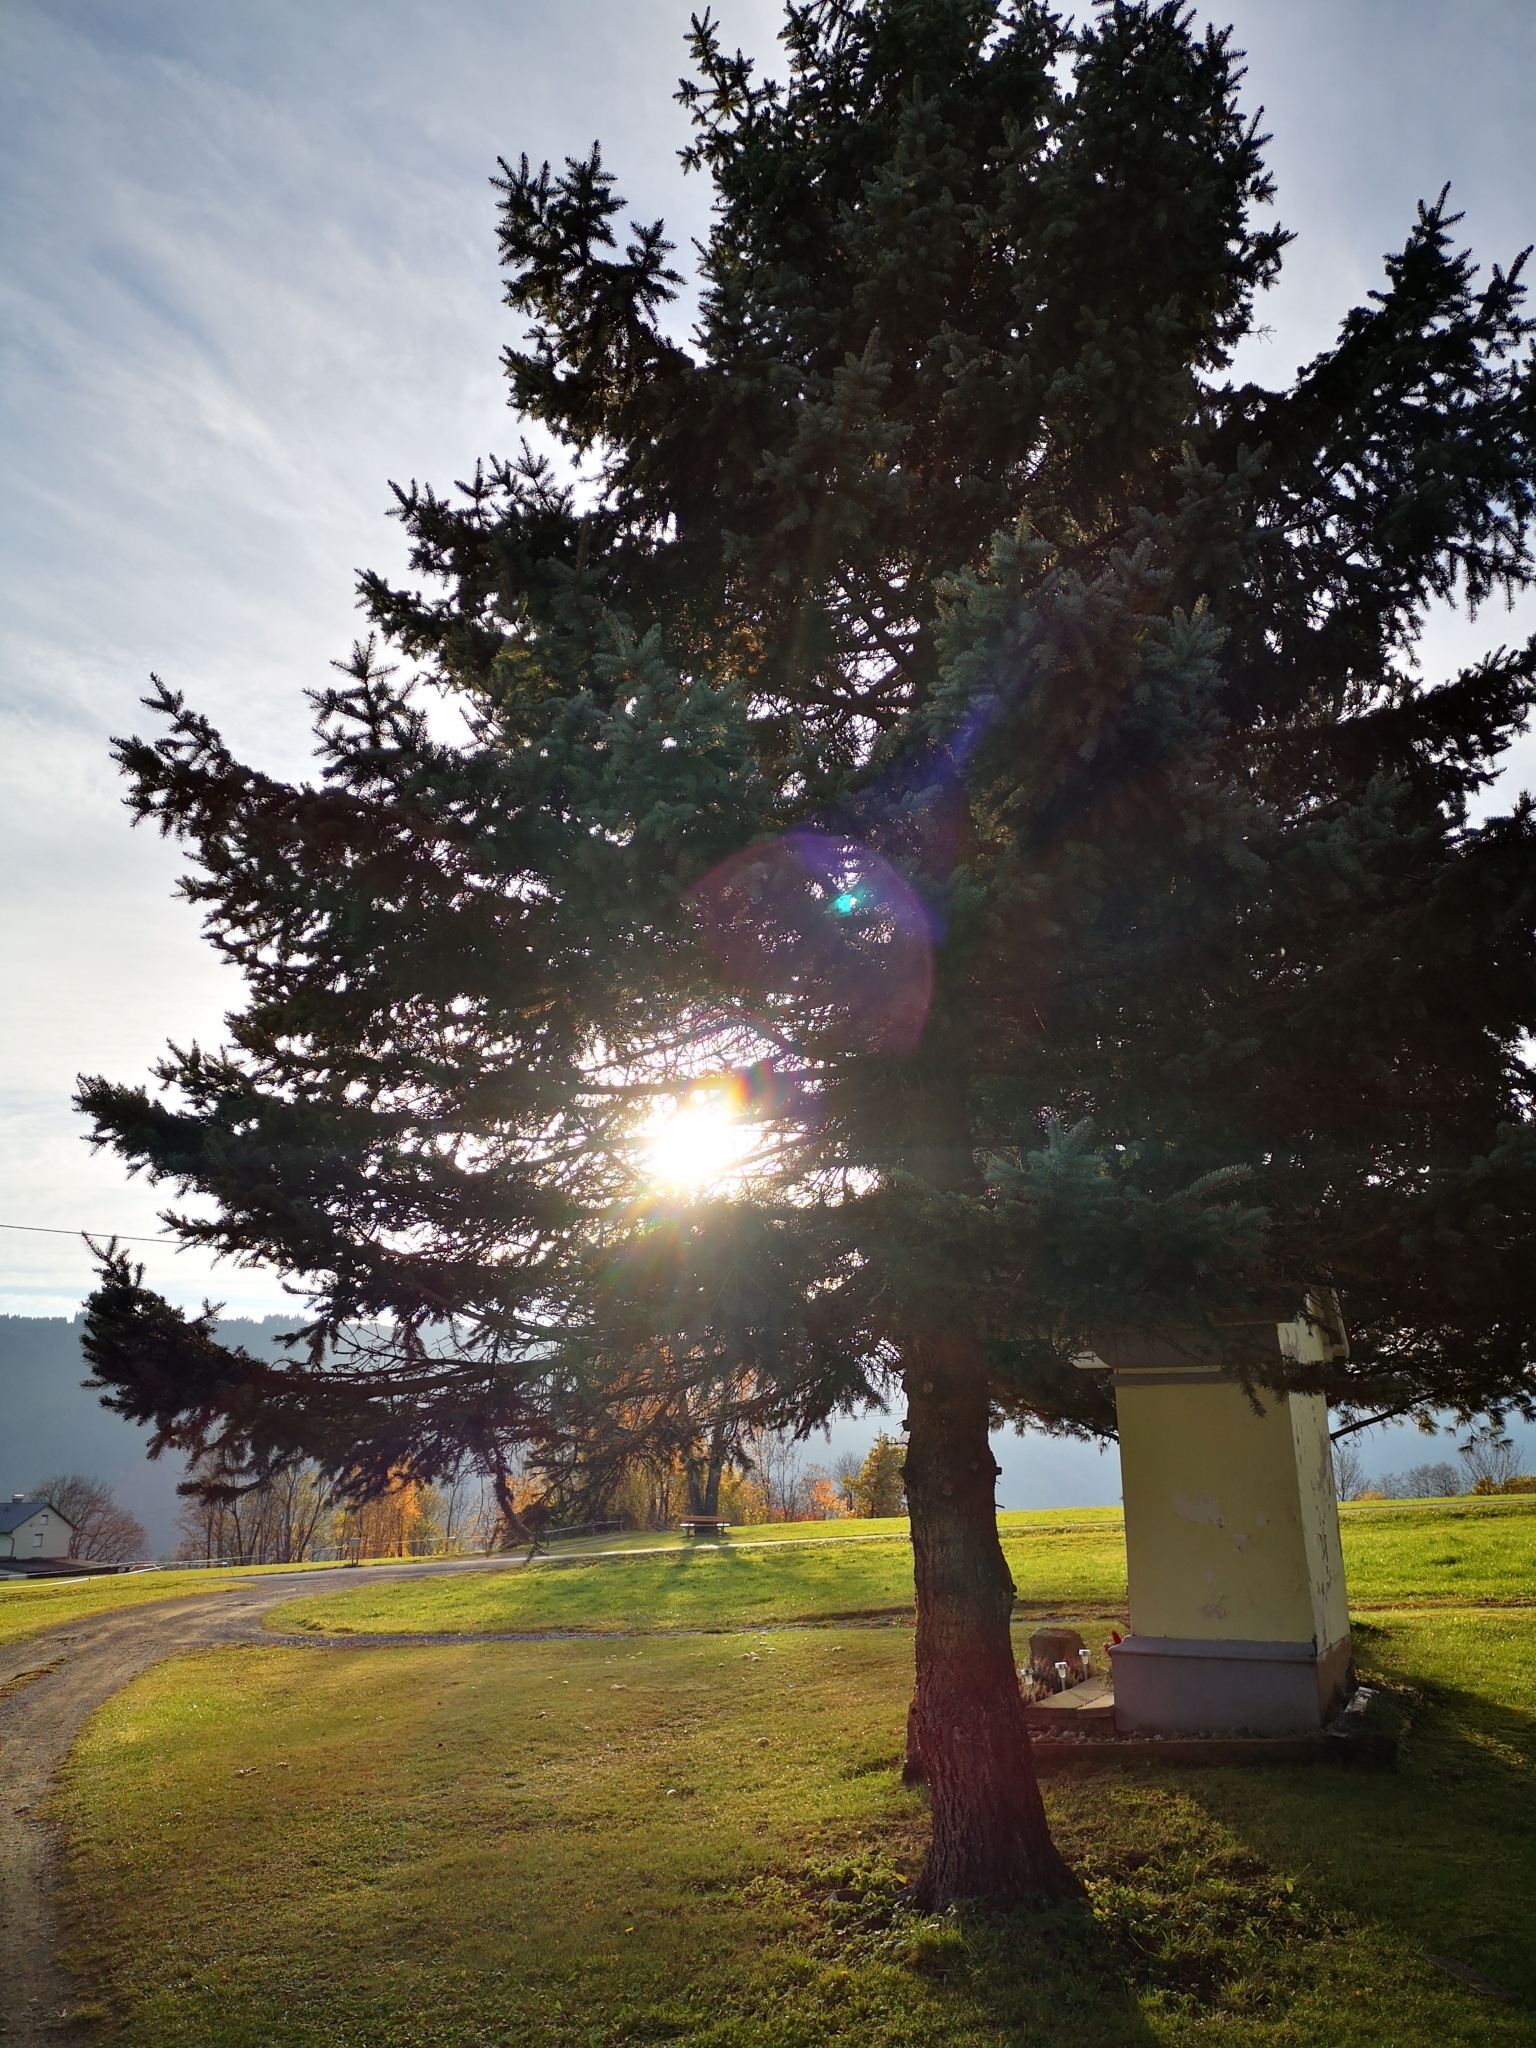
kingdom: Fungi
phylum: Basidiomycota
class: Agaricomycetes
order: Boletales
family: Suillaceae
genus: Suillus
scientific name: Suillus cavipes
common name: Hollow bolete
